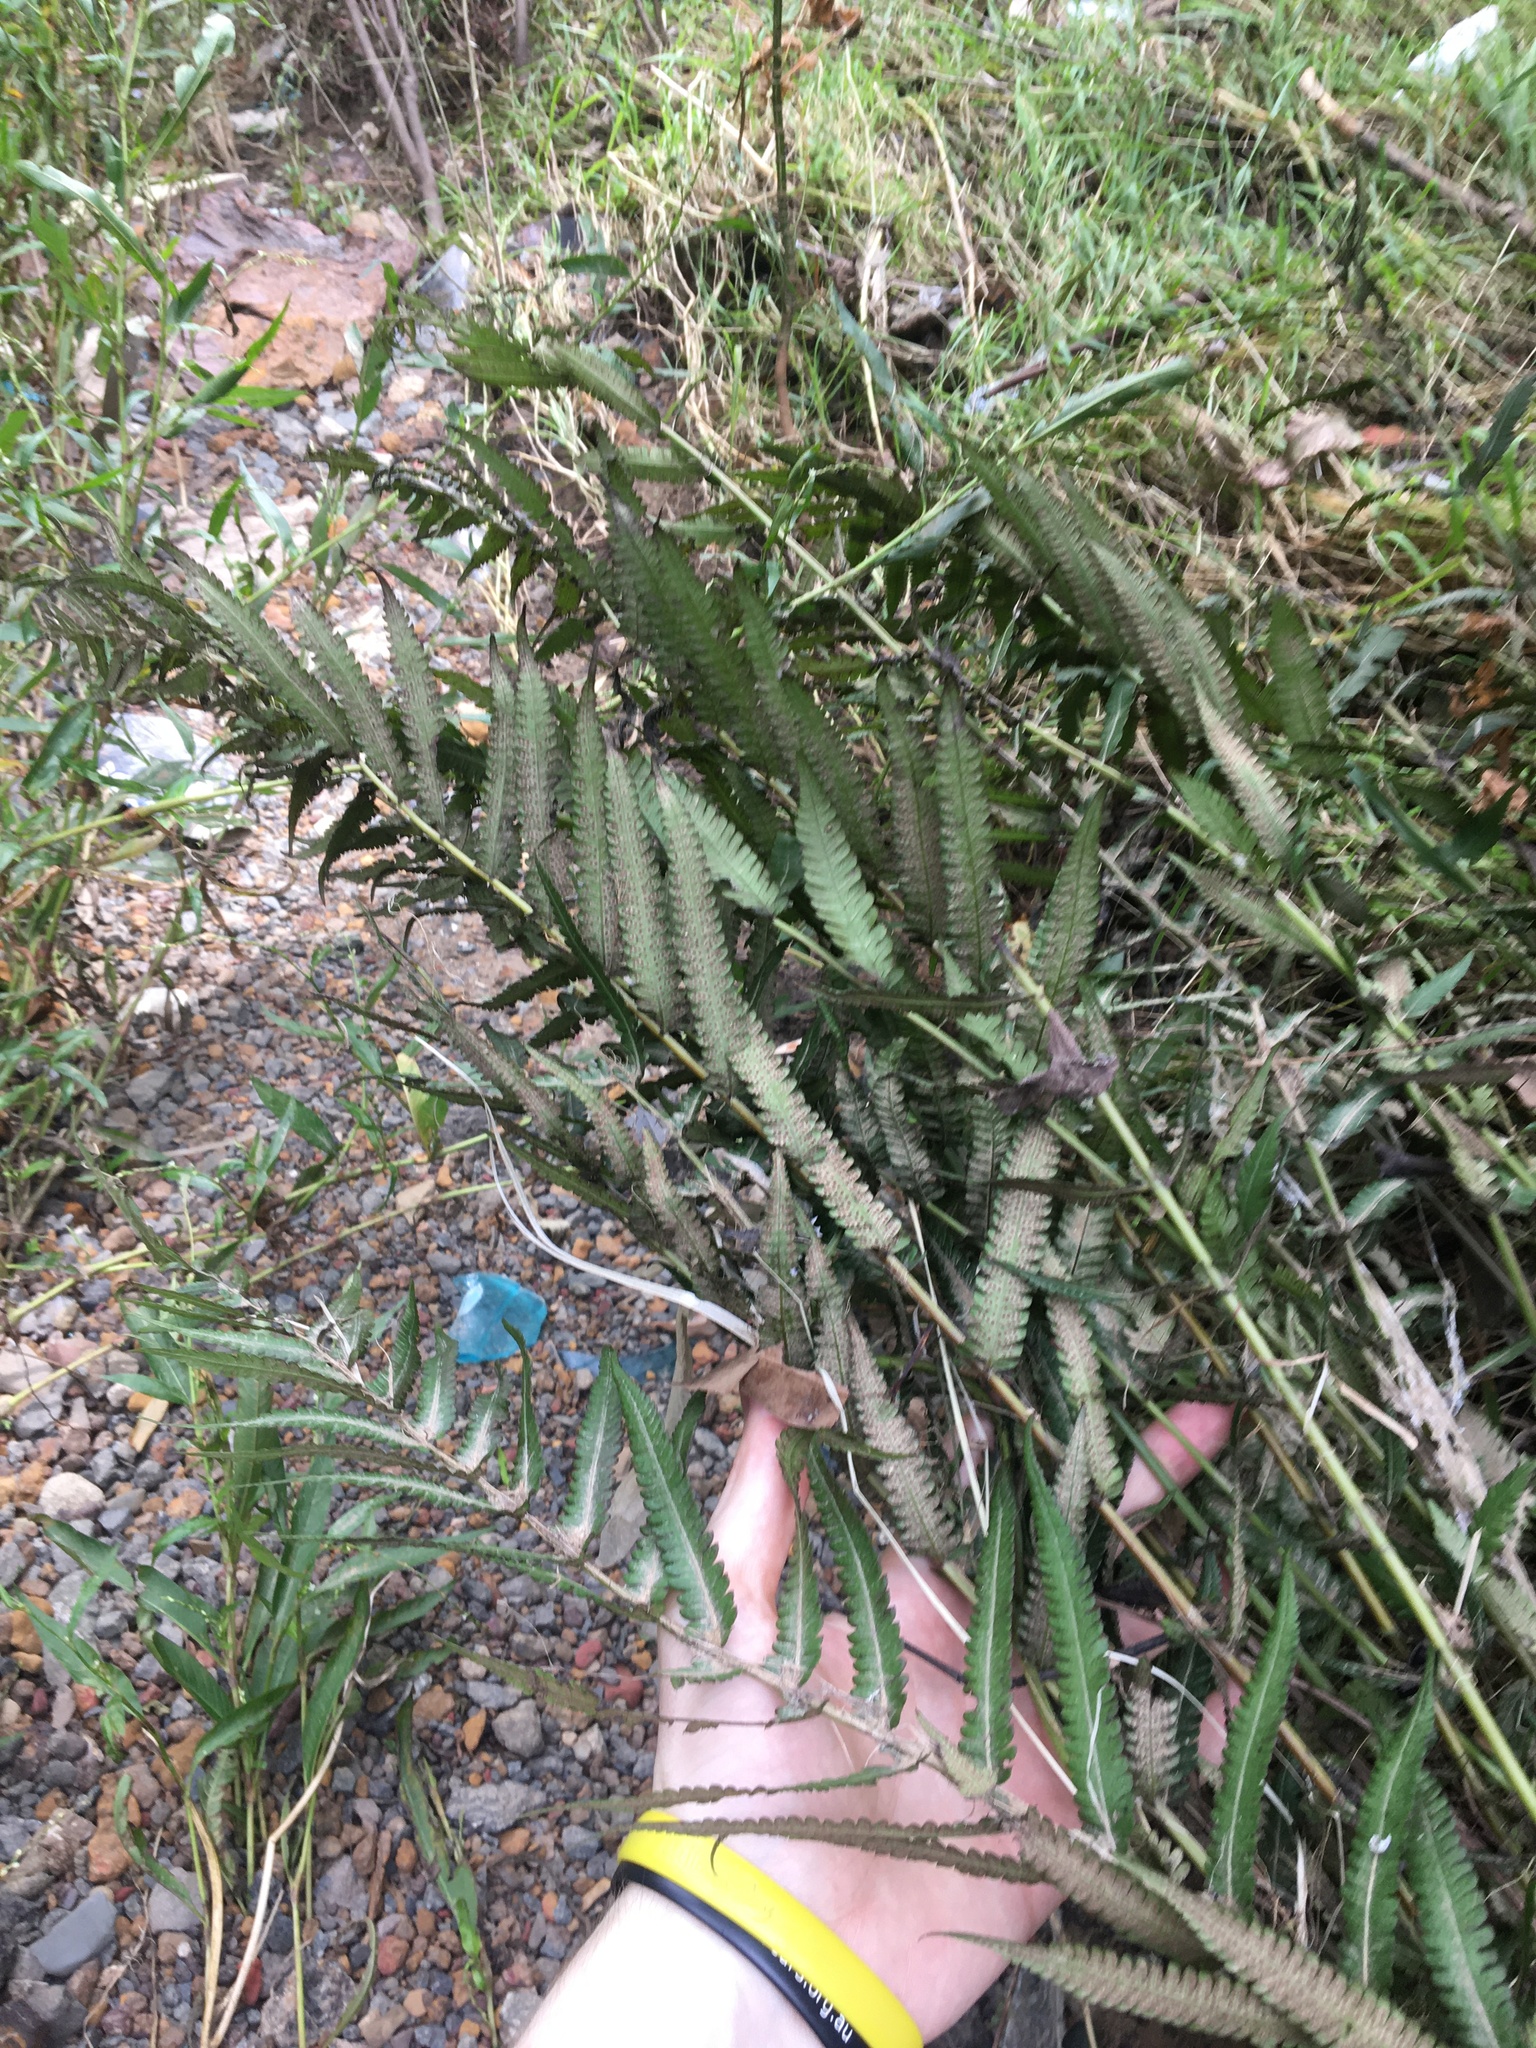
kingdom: Plantae
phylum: Tracheophyta
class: Polypodiopsida
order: Polypodiales
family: Thelypteridaceae
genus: Christella
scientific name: Christella dentata
